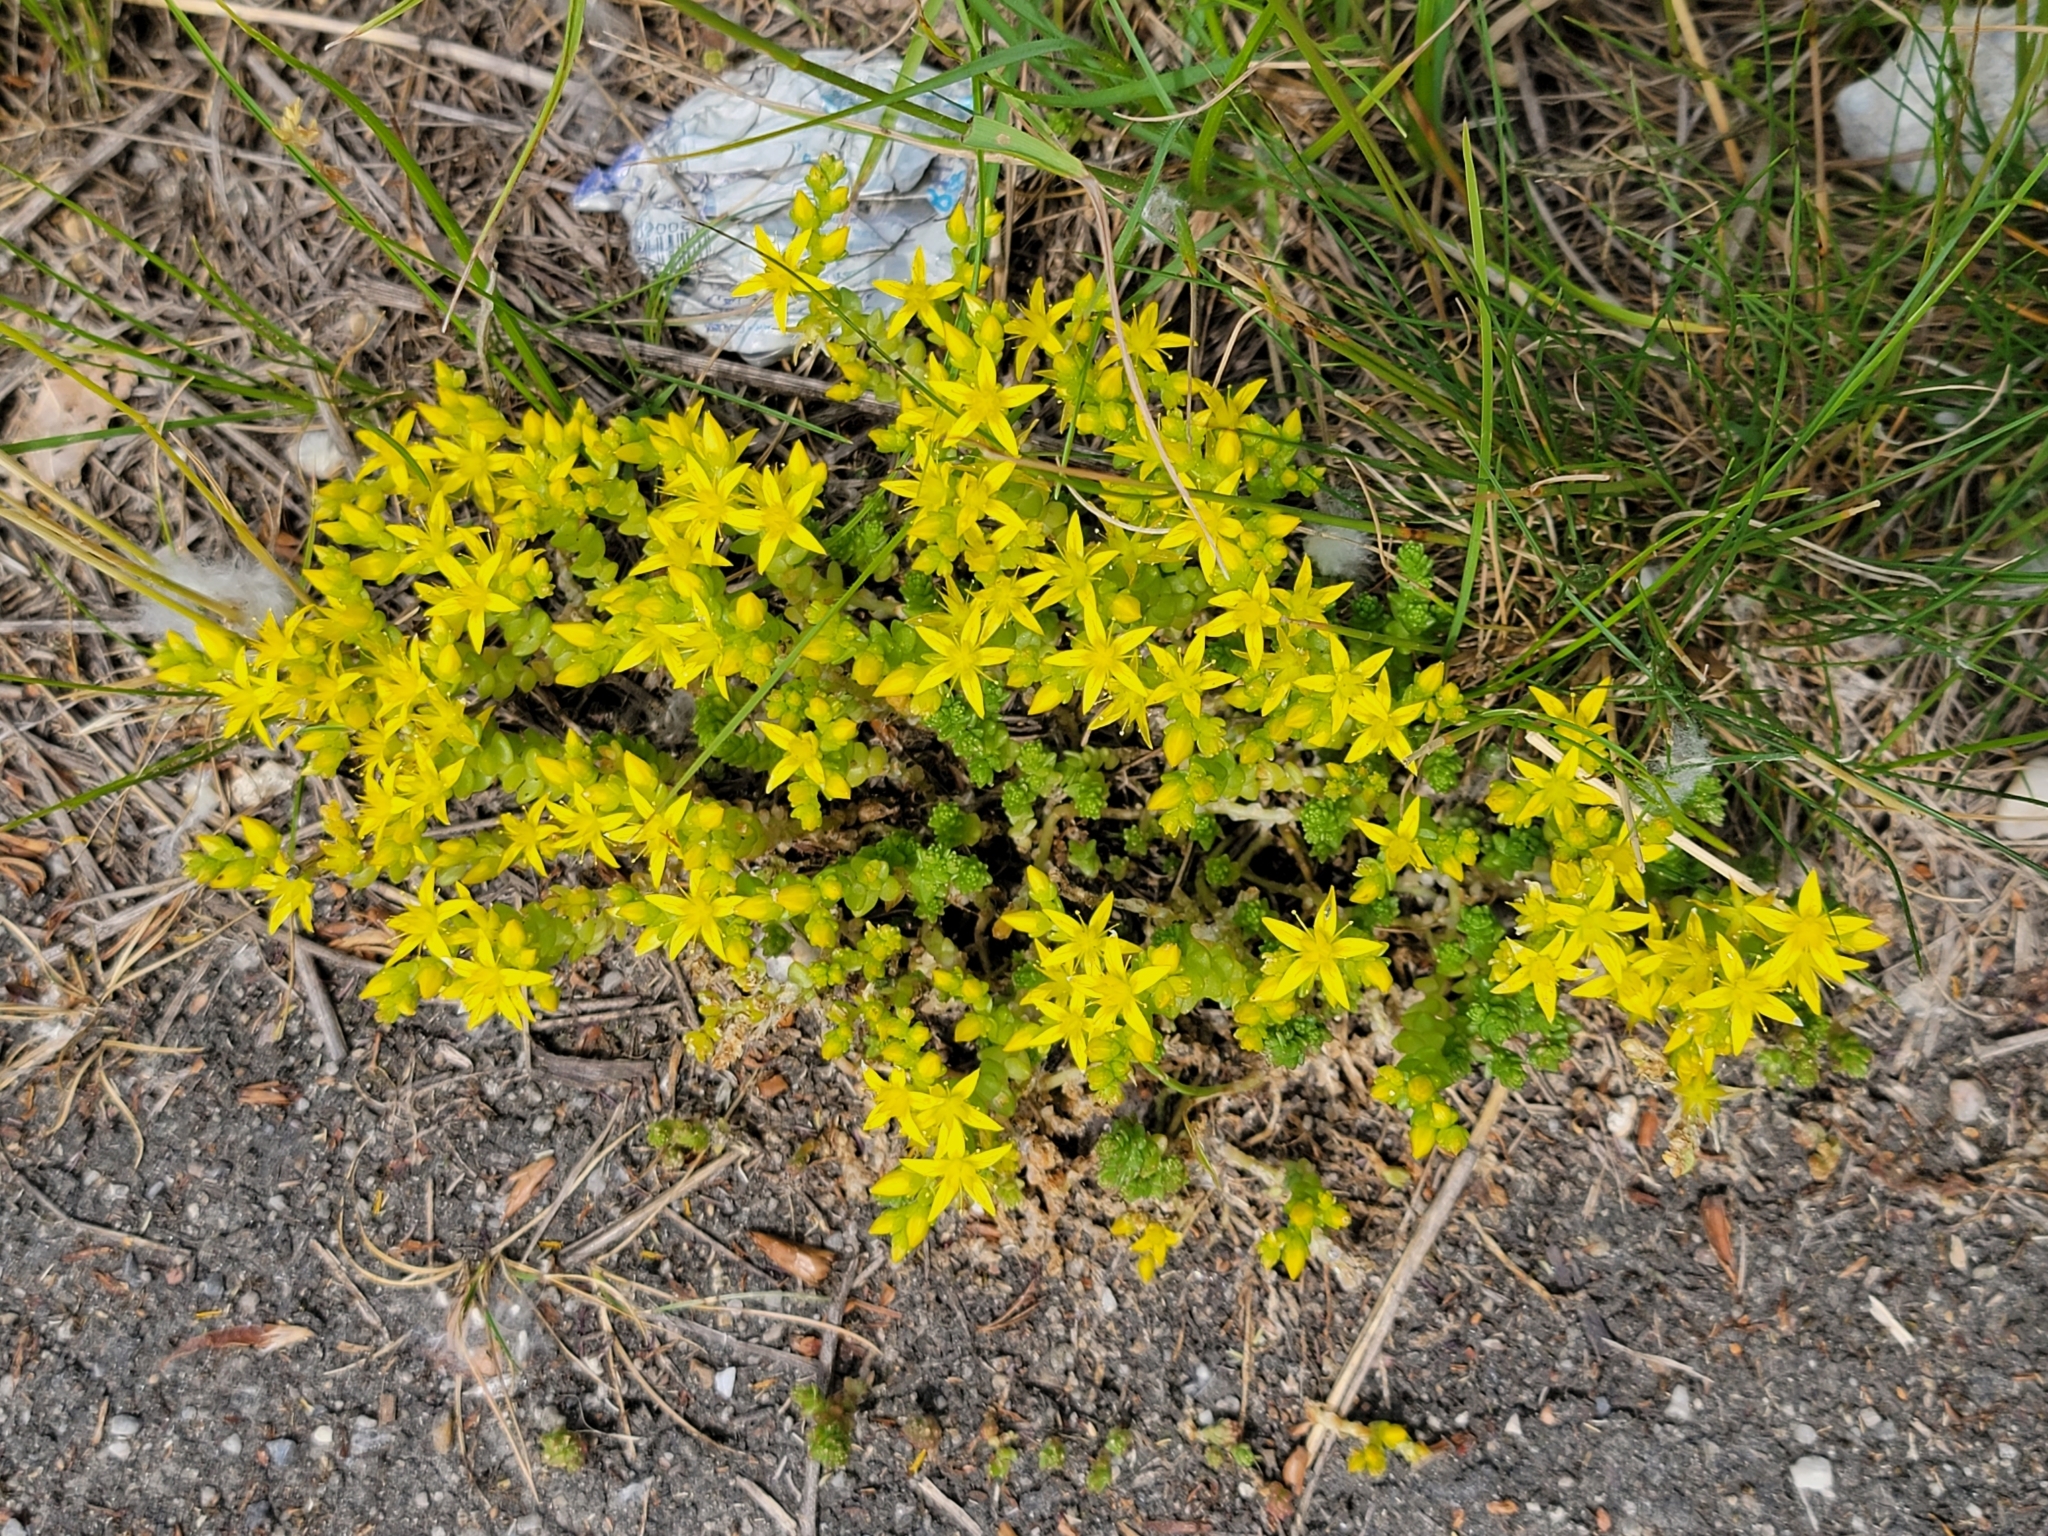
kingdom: Plantae
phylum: Tracheophyta
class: Magnoliopsida
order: Saxifragales
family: Crassulaceae
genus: Sedum
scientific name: Sedum acre
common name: Biting stonecrop
